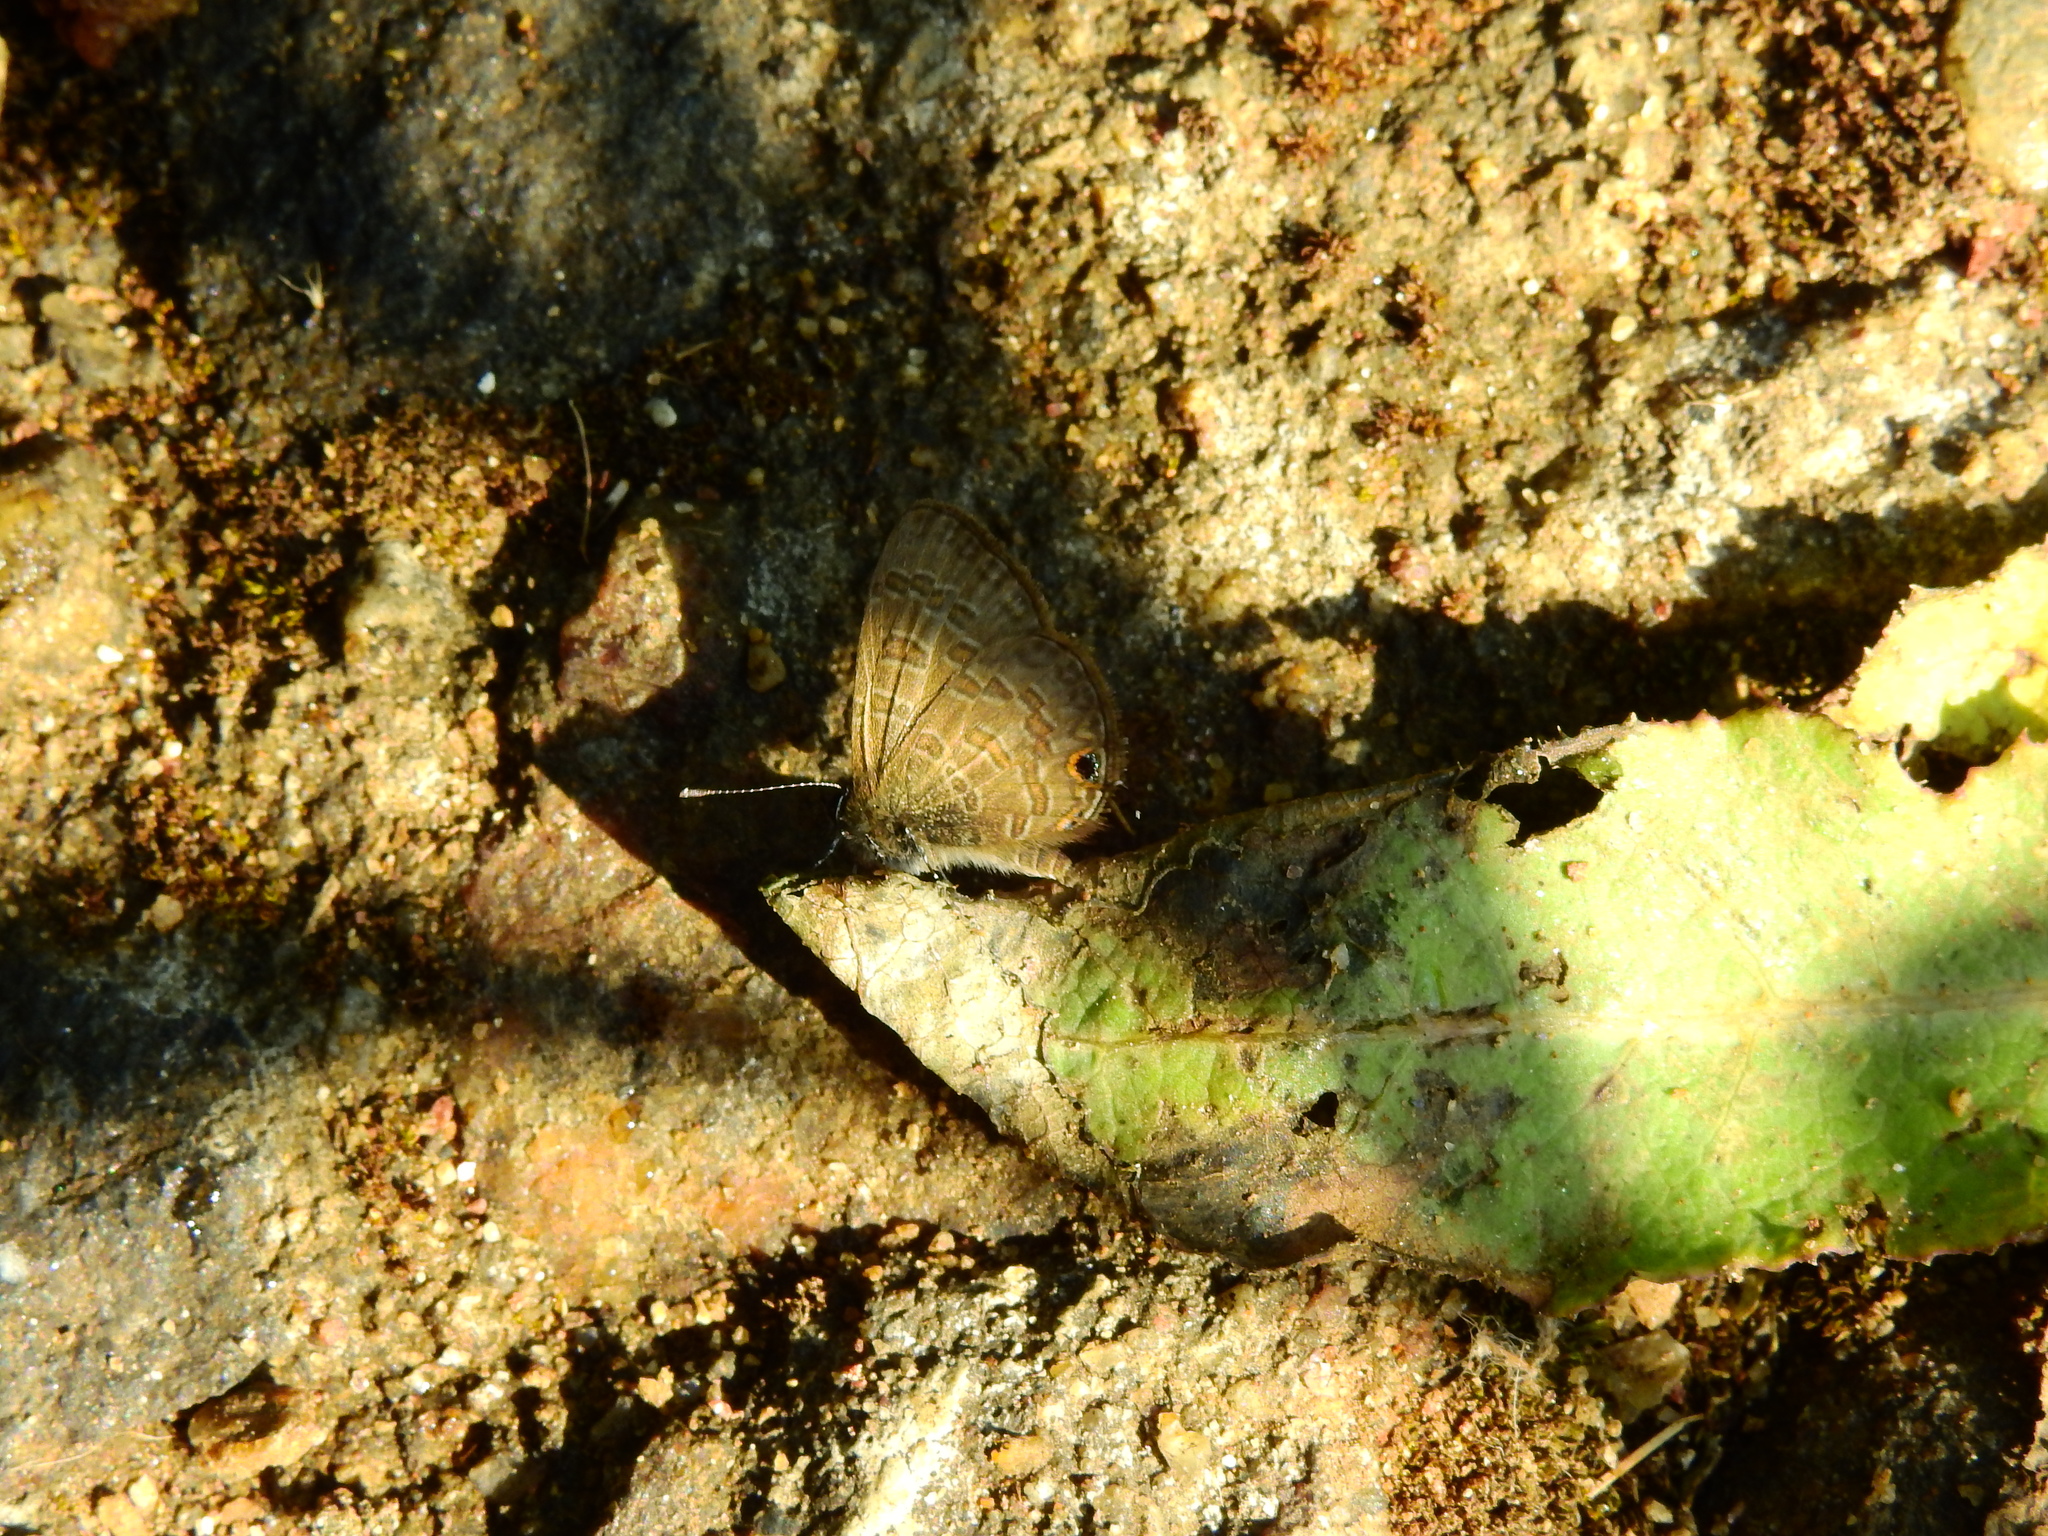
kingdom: Animalia
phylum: Arthropoda
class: Insecta
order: Lepidoptera
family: Lycaenidae
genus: Prosotas
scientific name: Prosotas nora
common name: Common line blue
